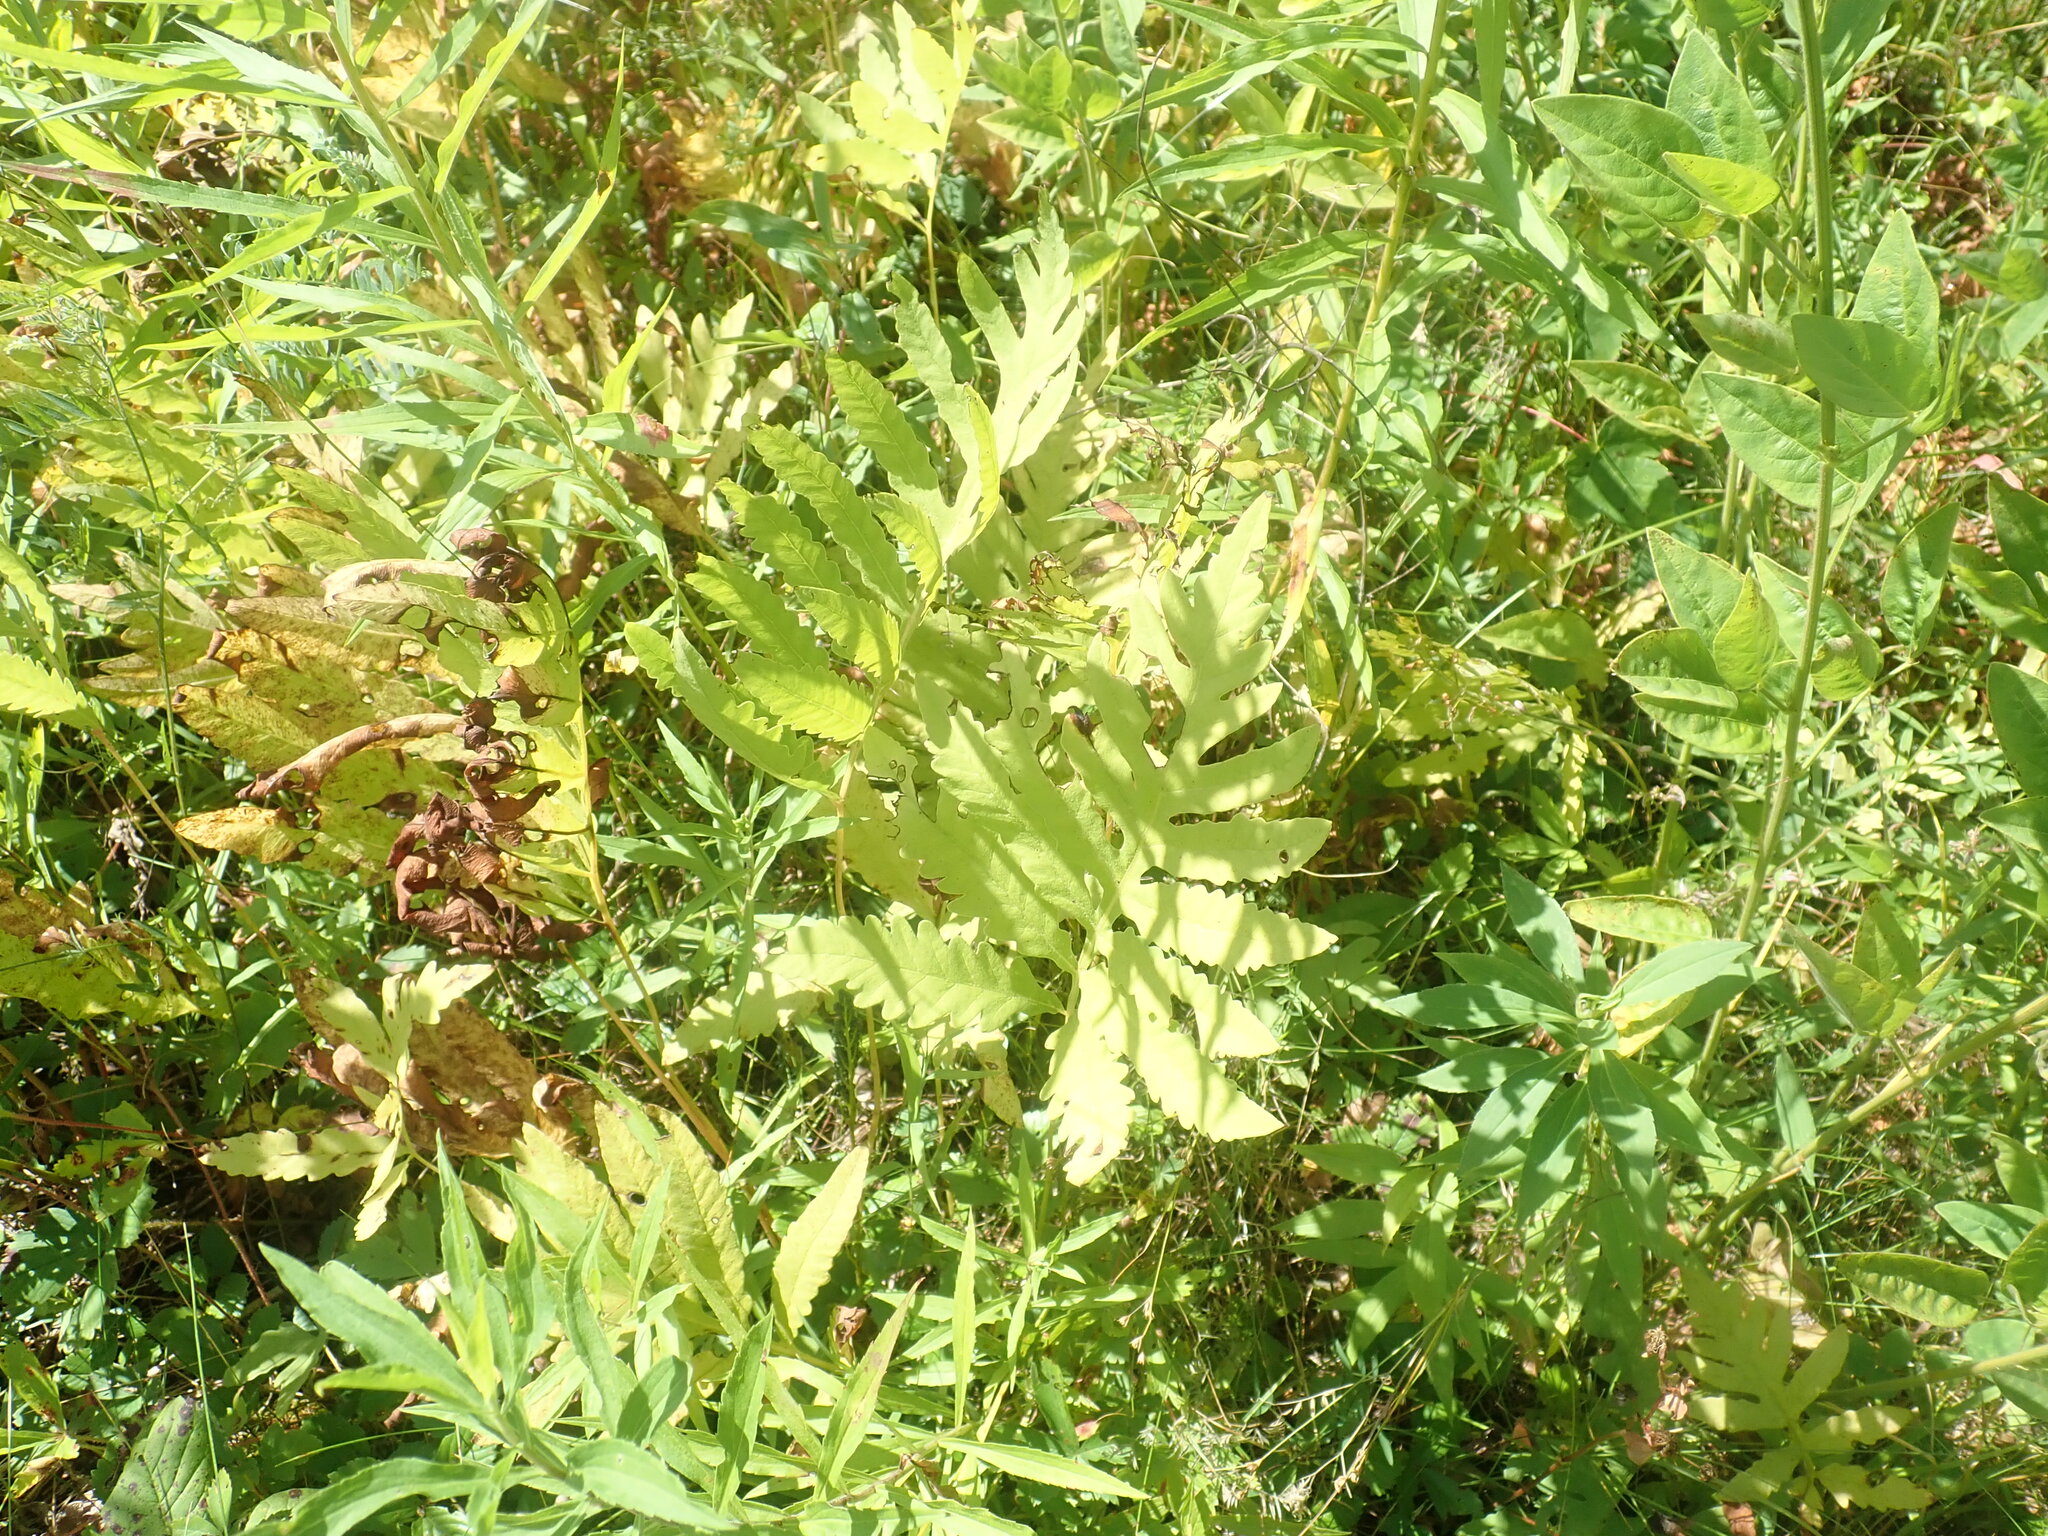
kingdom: Plantae
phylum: Tracheophyta
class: Polypodiopsida
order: Polypodiales
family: Onocleaceae
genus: Onoclea
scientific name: Onoclea sensibilis
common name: Sensitive fern
